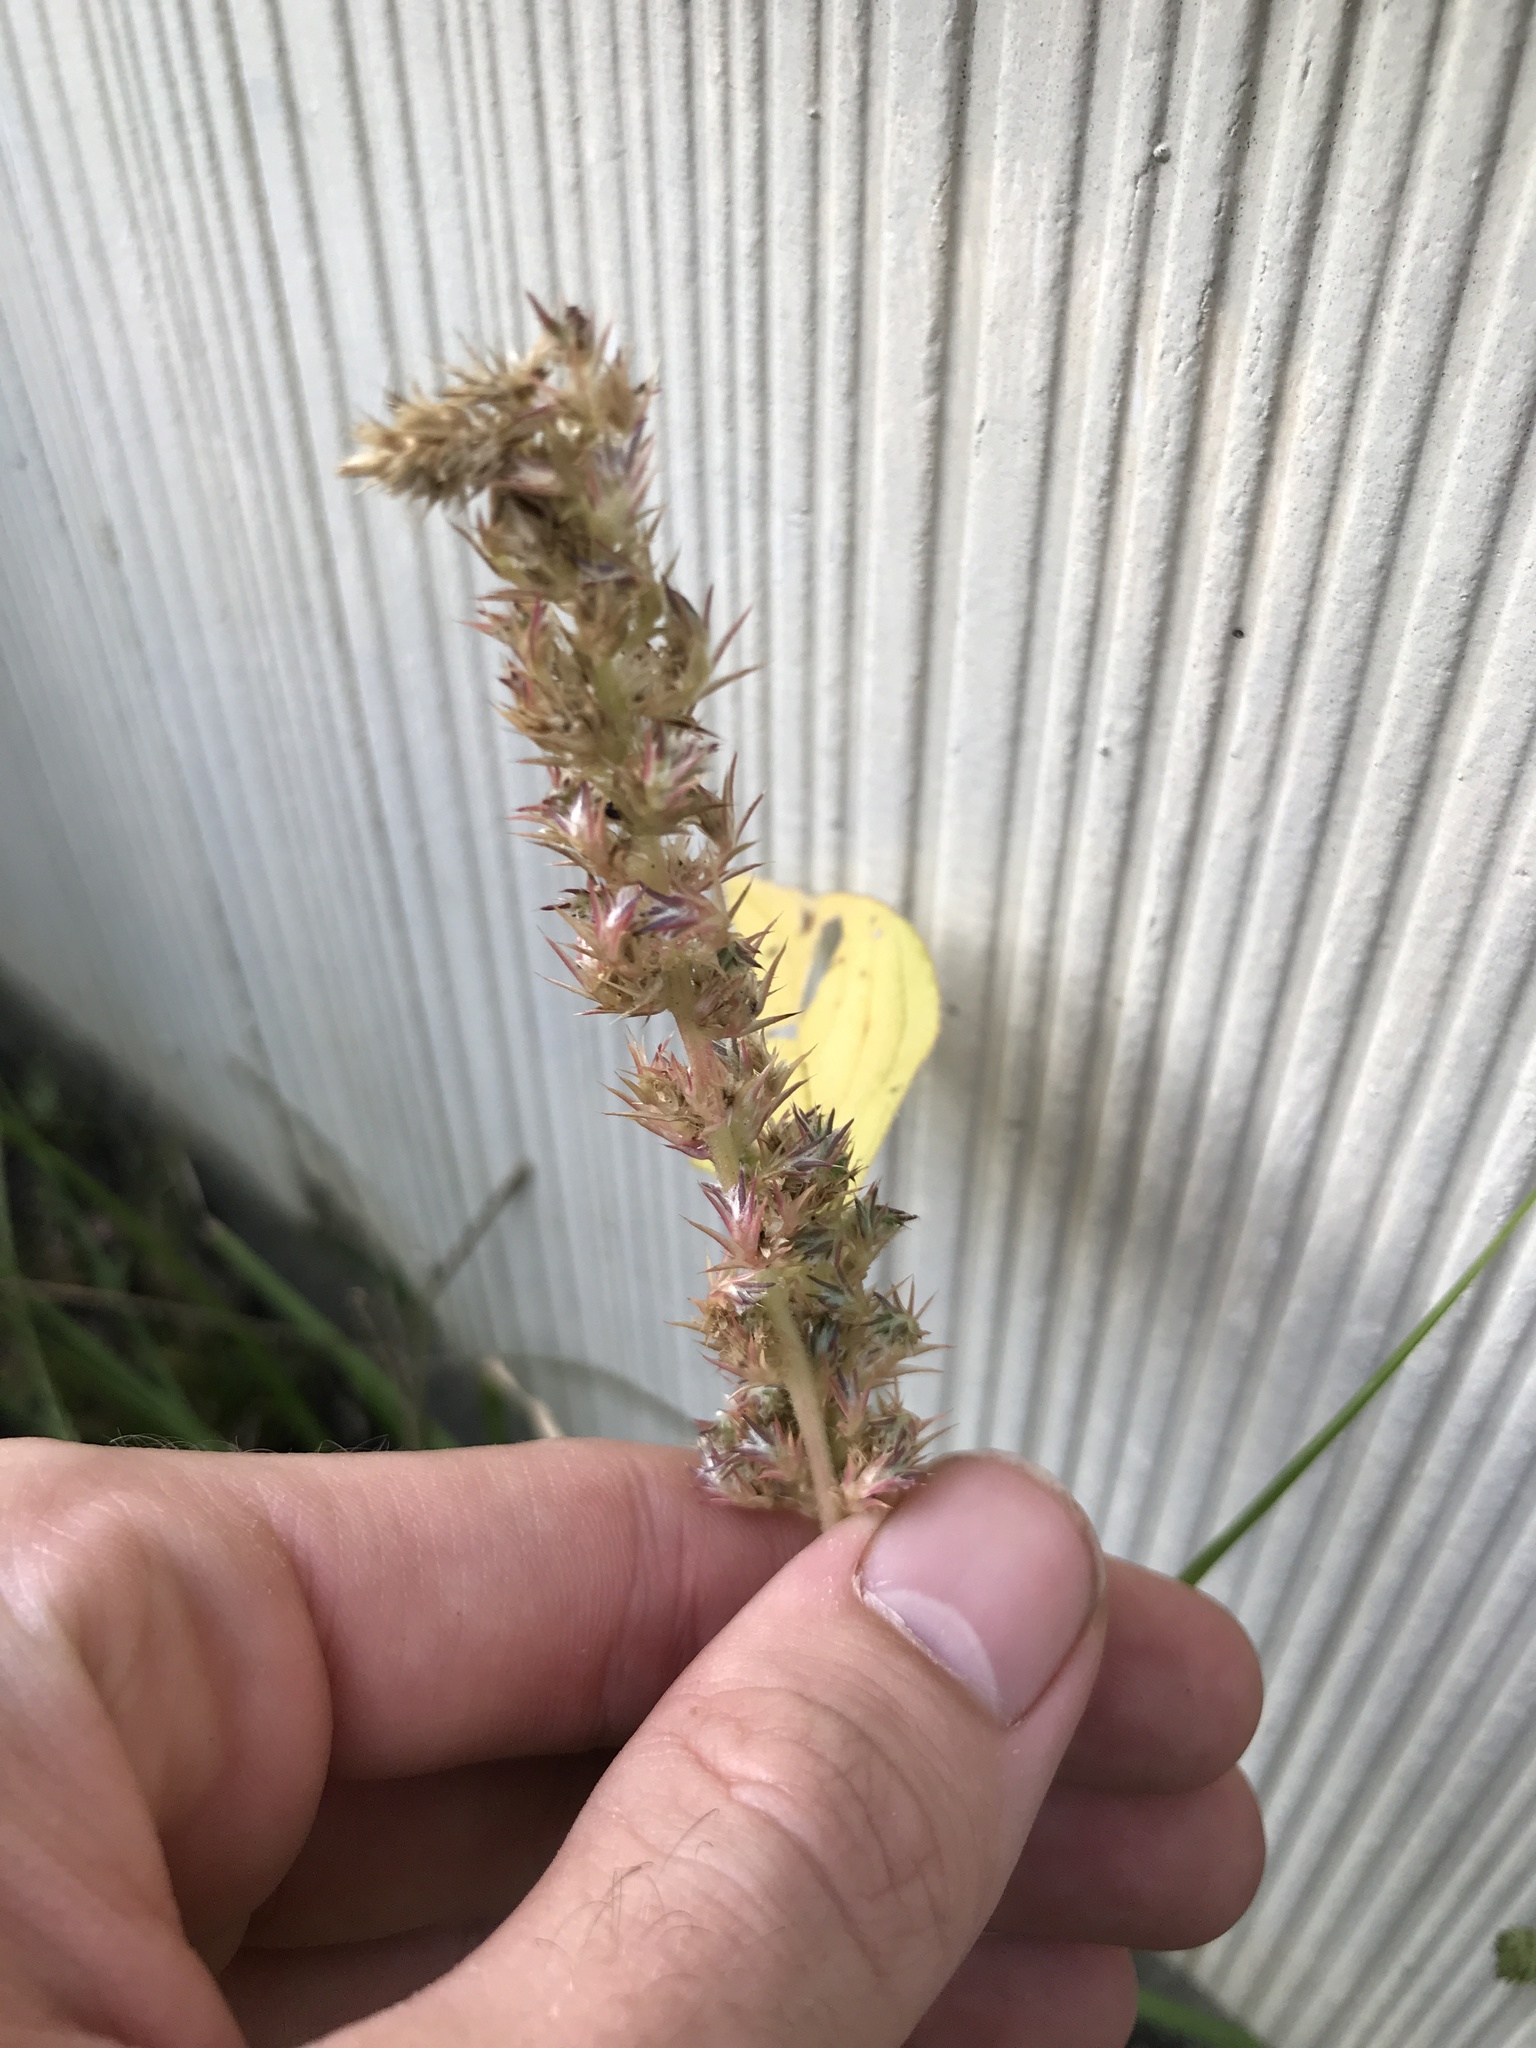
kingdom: Plantae
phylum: Tracheophyta
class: Magnoliopsida
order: Caryophyllales
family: Amaranthaceae
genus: Amaranthus
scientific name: Amaranthus retroflexus
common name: Redroot amaranth
